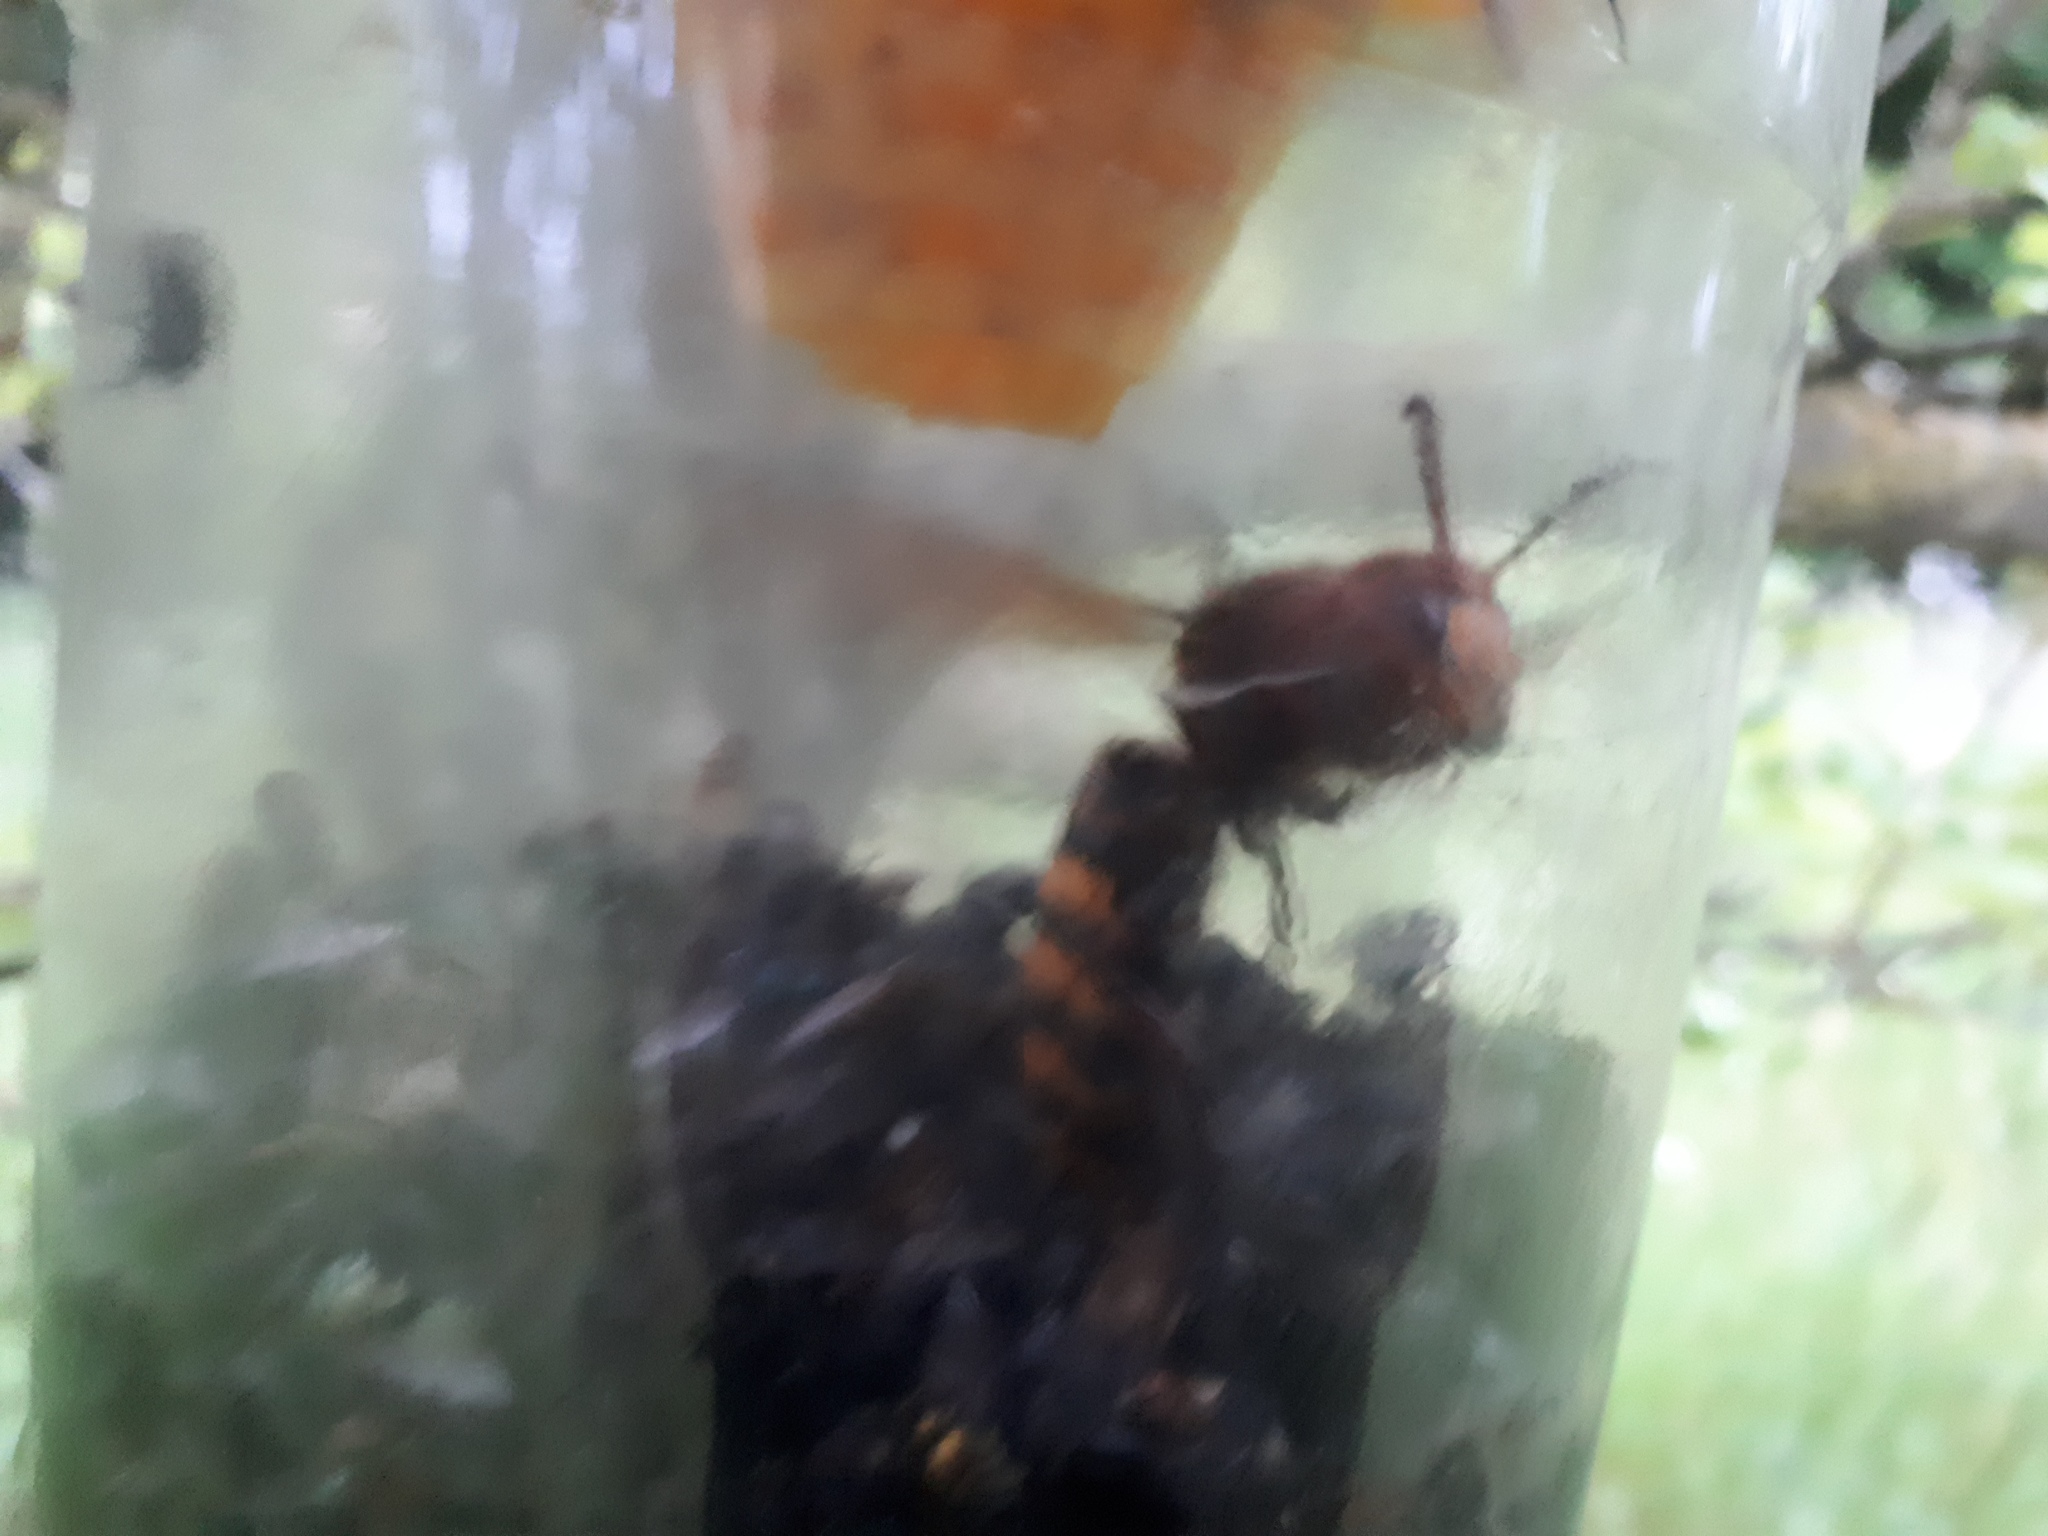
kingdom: Animalia
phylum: Arthropoda
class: Insecta
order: Hymenoptera
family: Vespidae
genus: Vespa
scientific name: Vespa crabro
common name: Hornet
